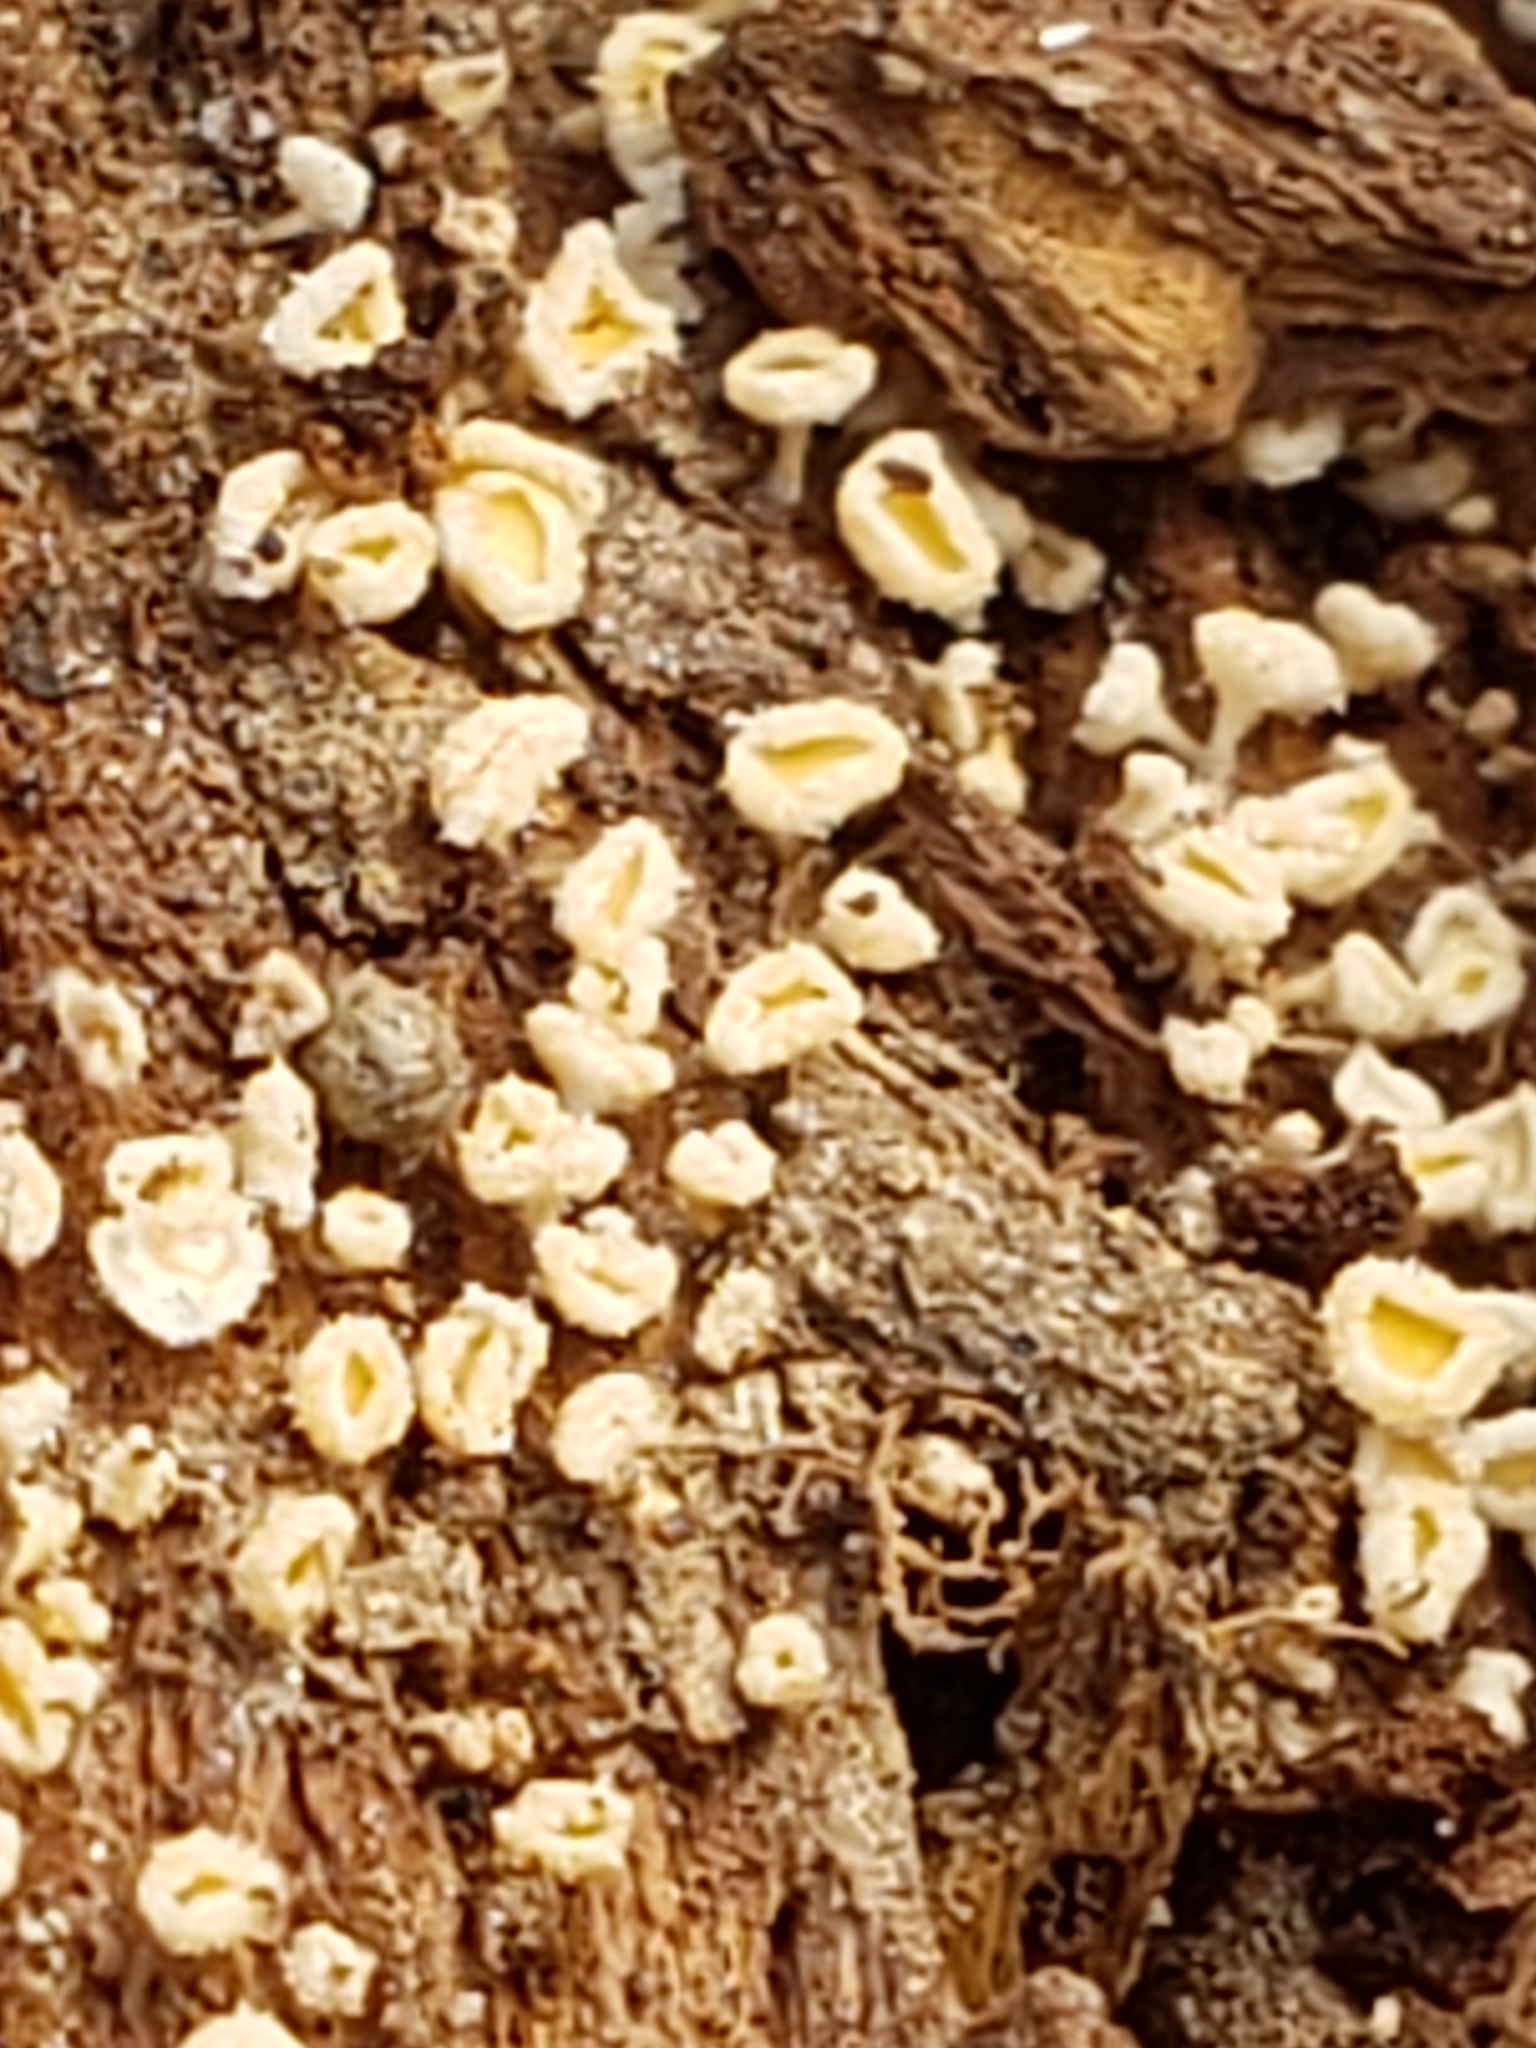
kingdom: Fungi
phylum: Ascomycota
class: Leotiomycetes
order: Helotiales
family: Lachnaceae
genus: Capitotricha
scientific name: Capitotricha bicolor
